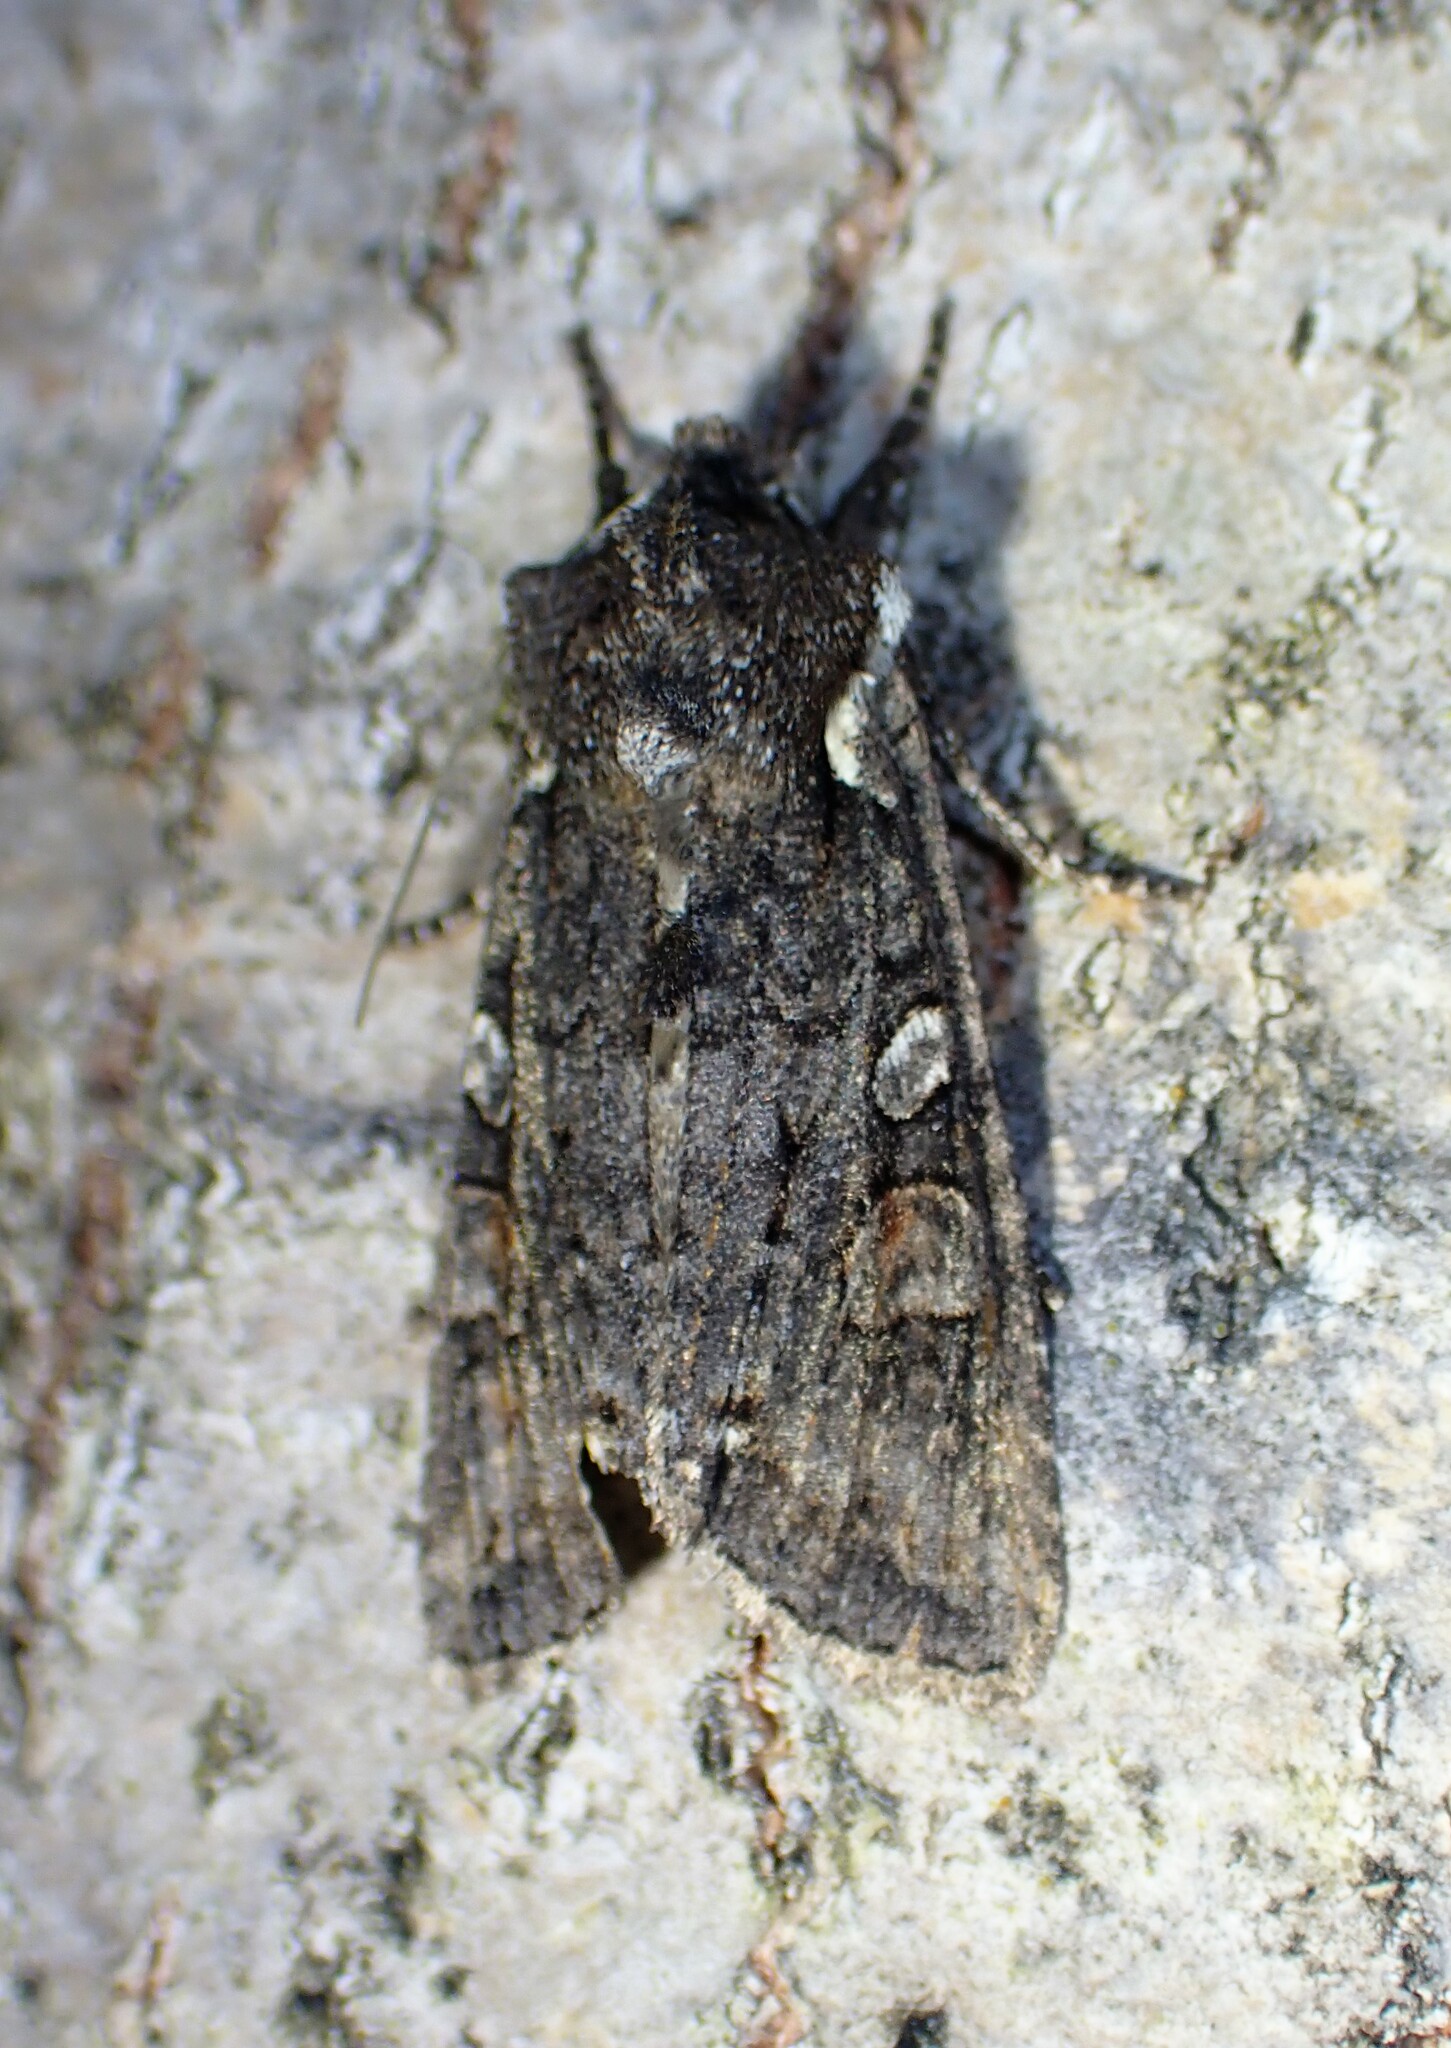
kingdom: Animalia
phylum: Arthropoda
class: Insecta
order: Lepidoptera
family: Noctuidae
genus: Lithophane
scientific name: Lithophane pexata
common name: Plush-naped pinion moth
